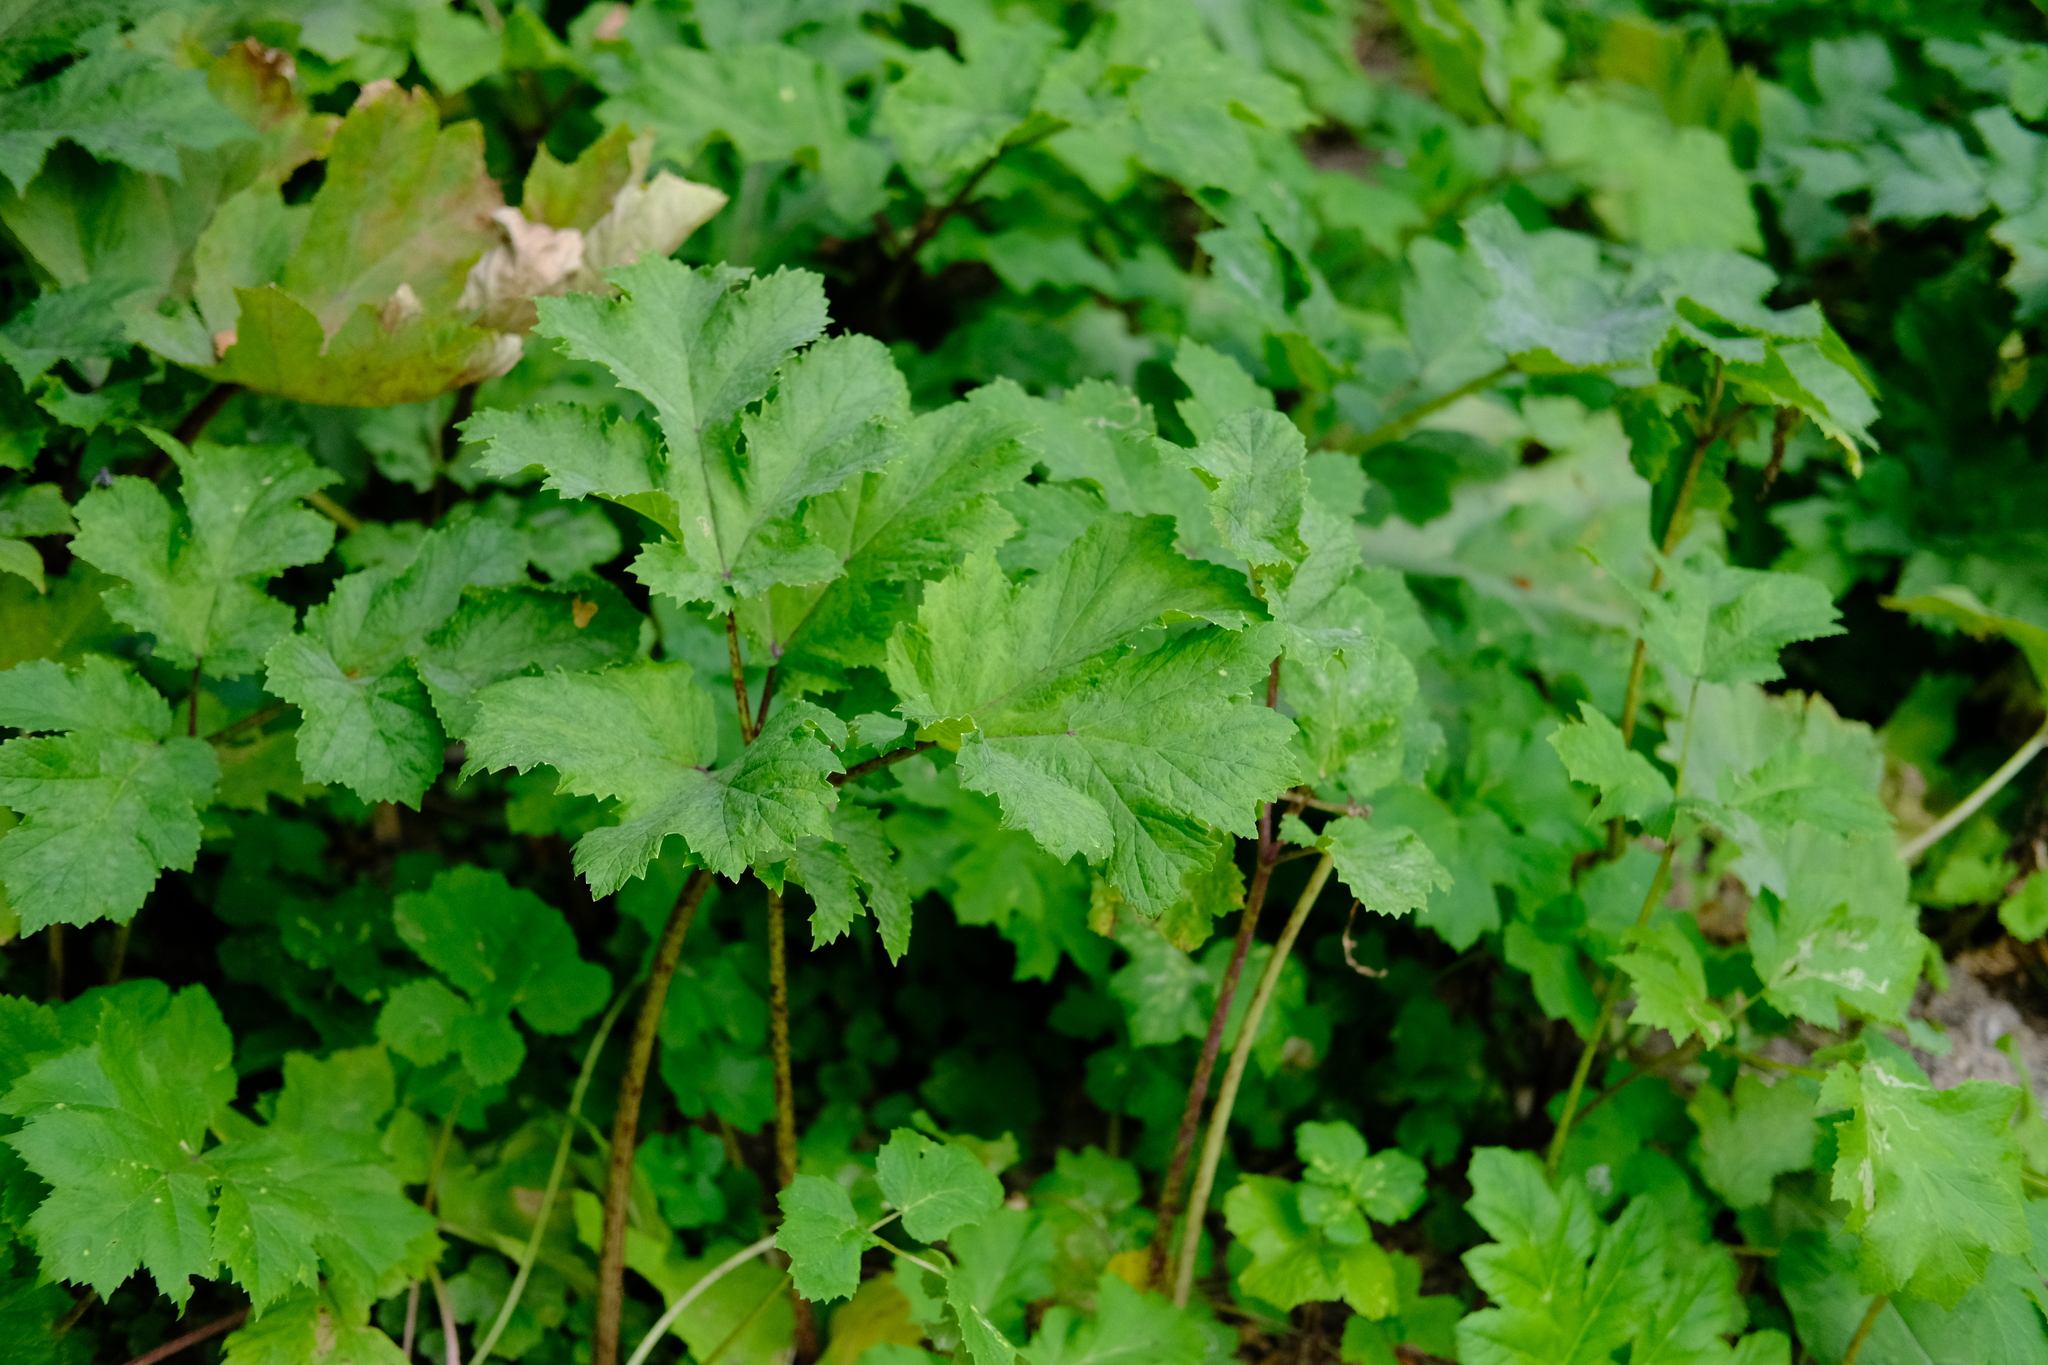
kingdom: Plantae
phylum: Tracheophyta
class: Magnoliopsida
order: Apiales
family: Apiaceae
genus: Heracleum
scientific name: Heracleum sosnowskyi
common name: Sosnowsky's hogweed
